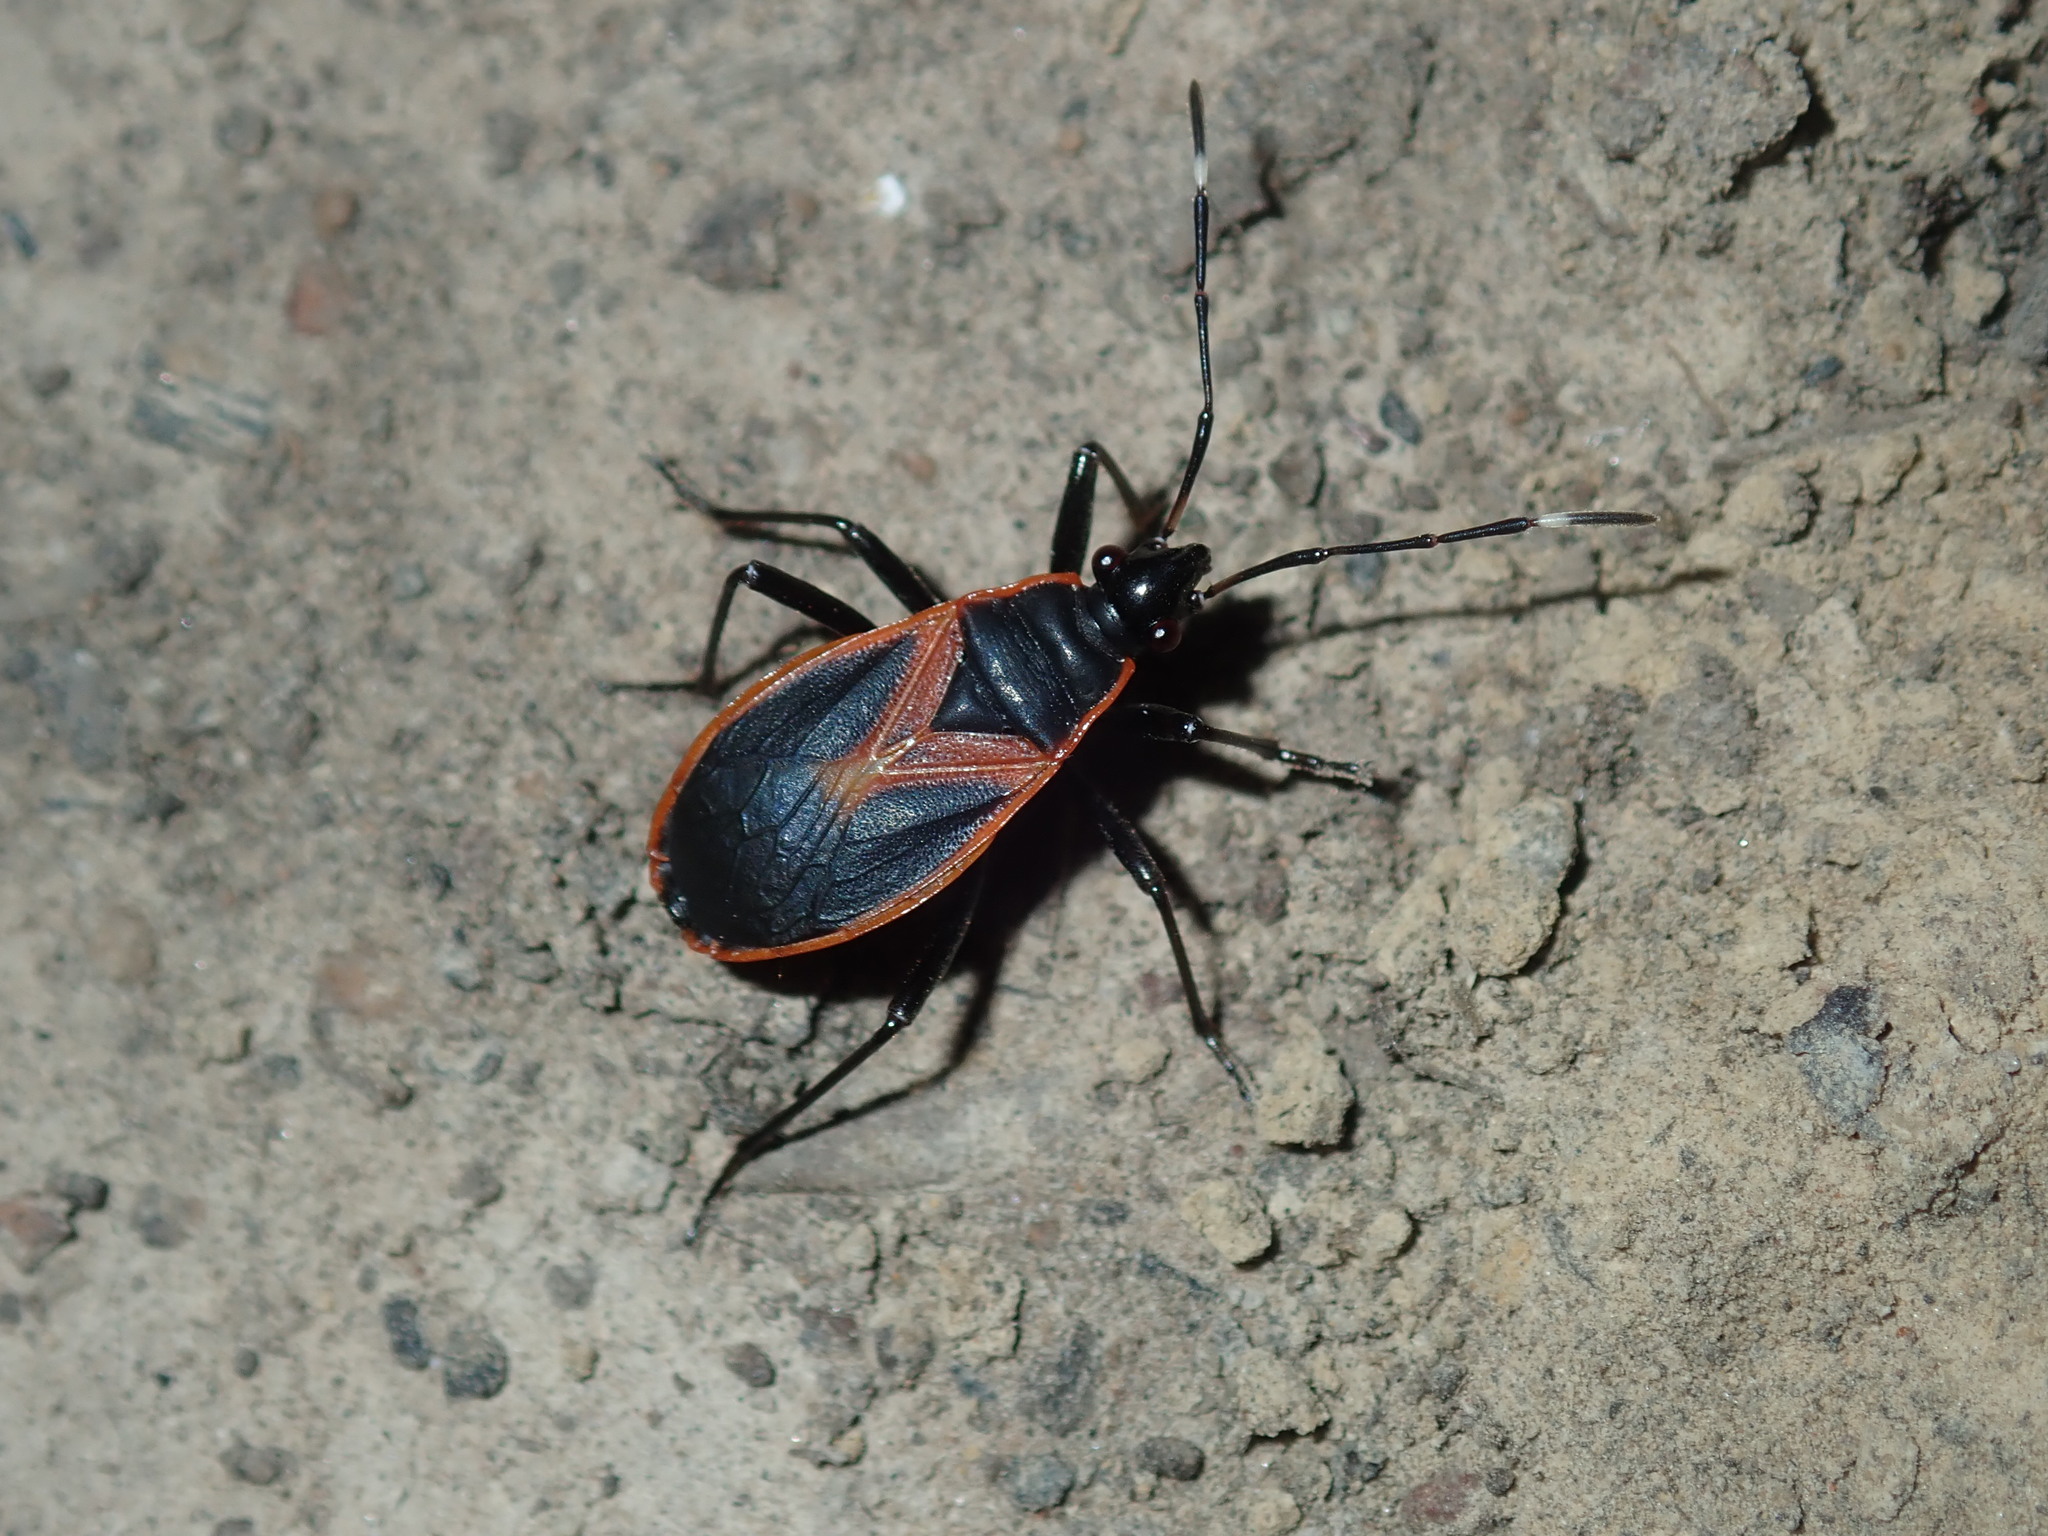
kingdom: Animalia
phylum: Arthropoda
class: Insecta
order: Hemiptera
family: Pyrrhocoridae
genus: Dindymus
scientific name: Dindymus
